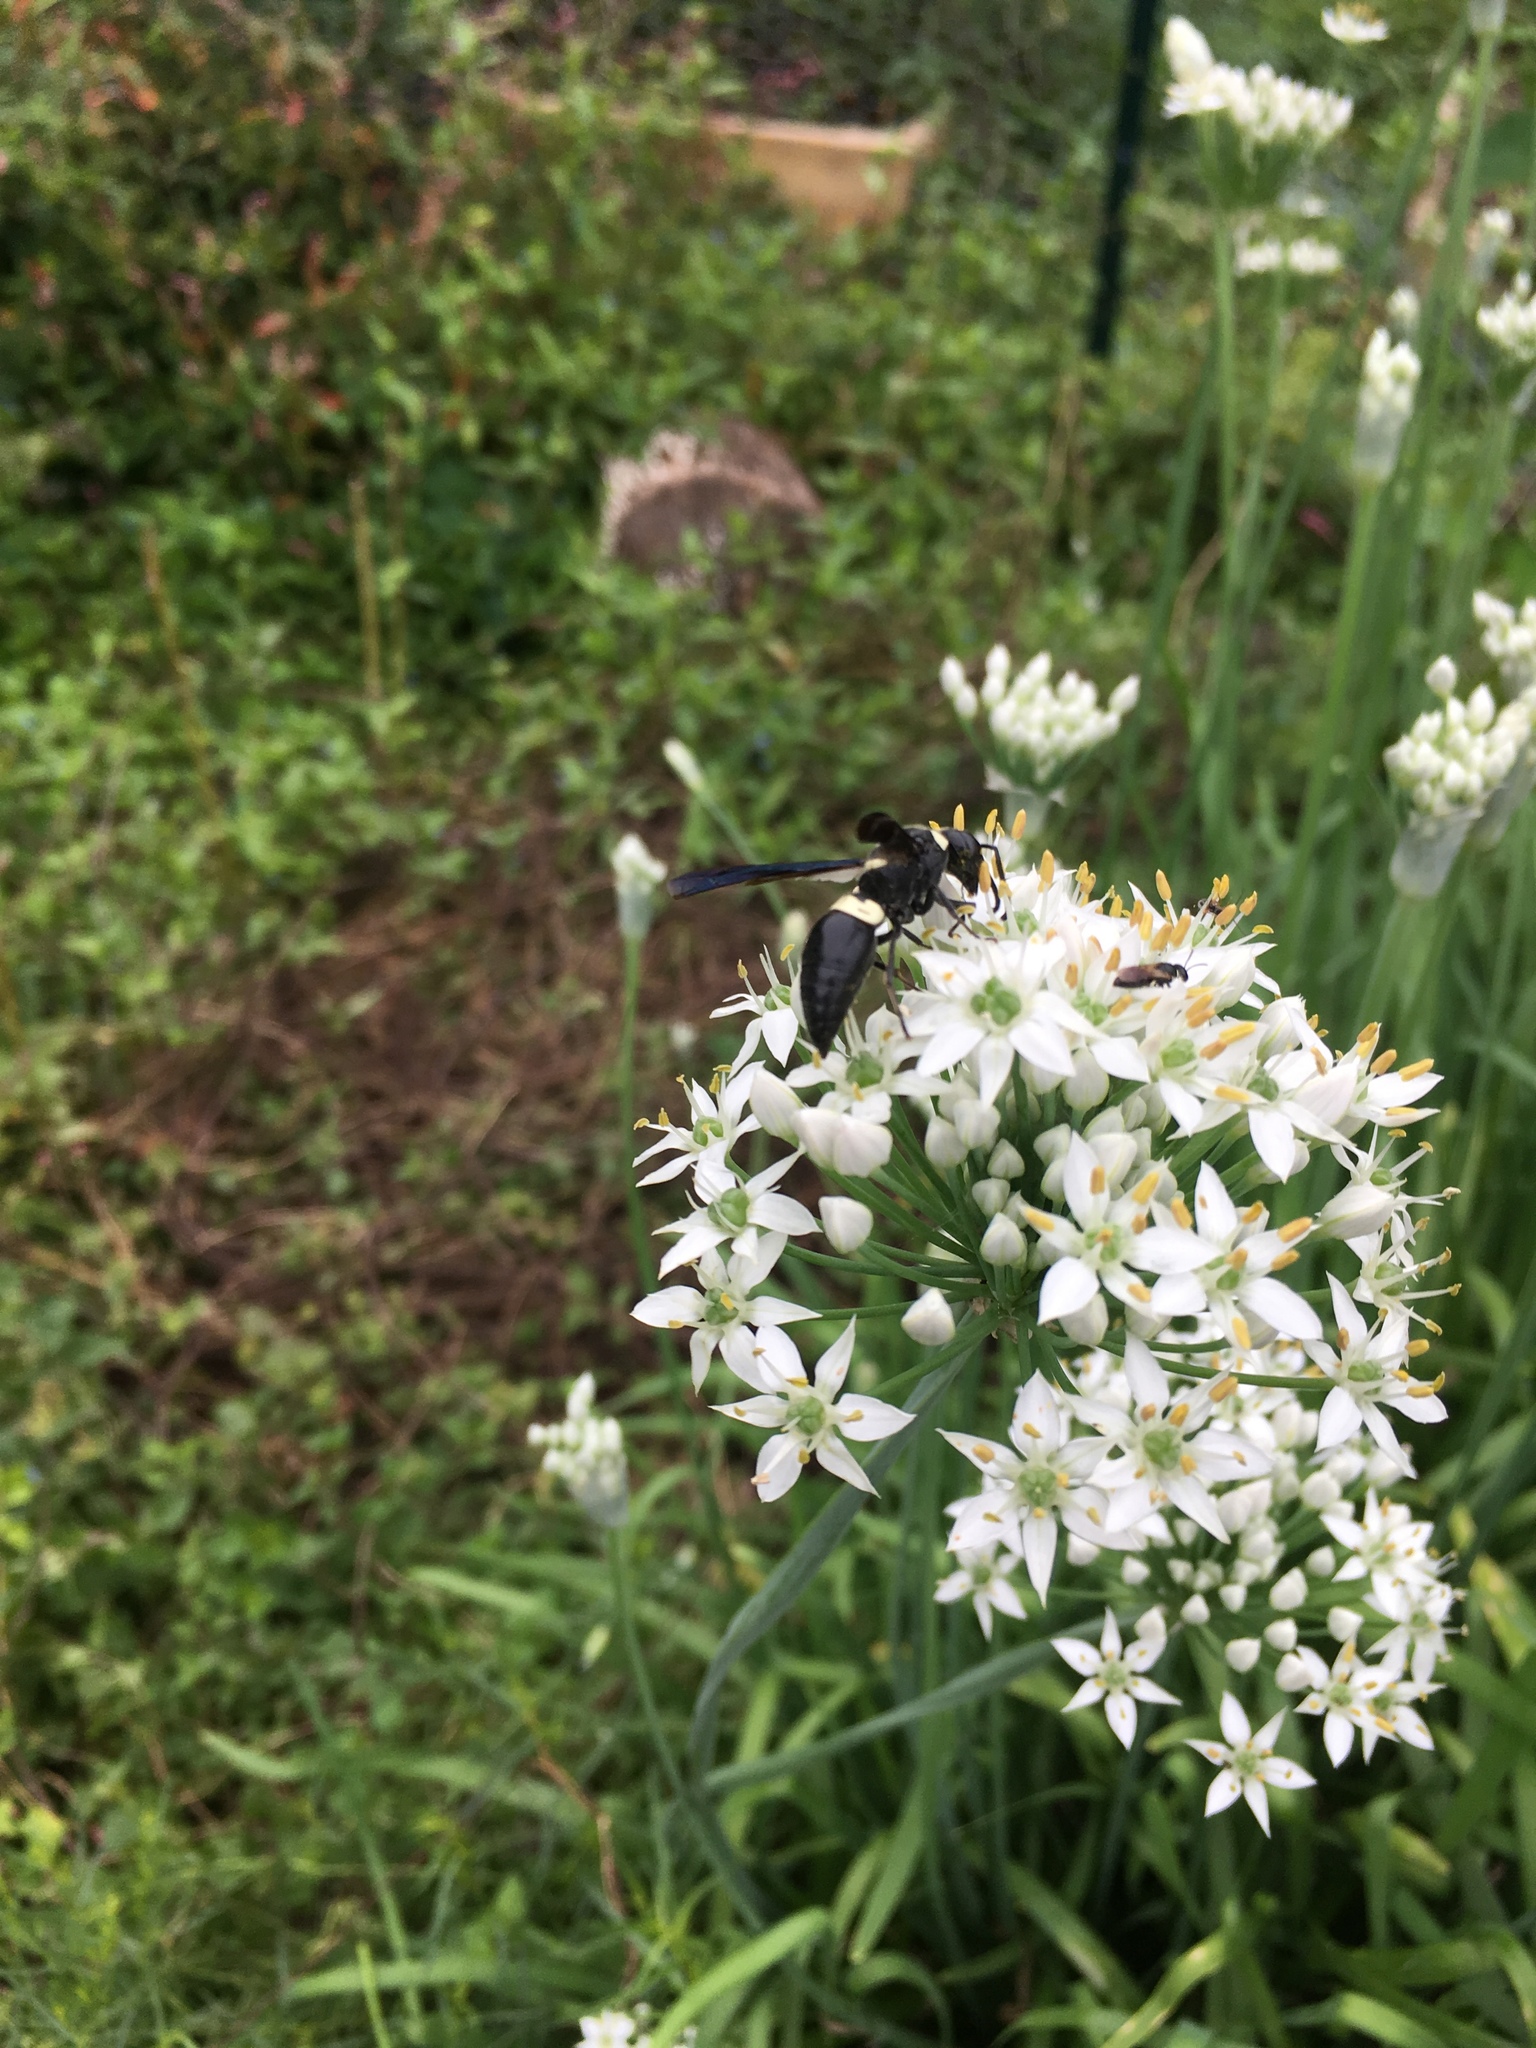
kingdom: Animalia
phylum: Arthropoda
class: Insecta
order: Hymenoptera
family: Eumenidae
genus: Monobia
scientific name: Monobia quadridens
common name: Four-toothed mason wasp
